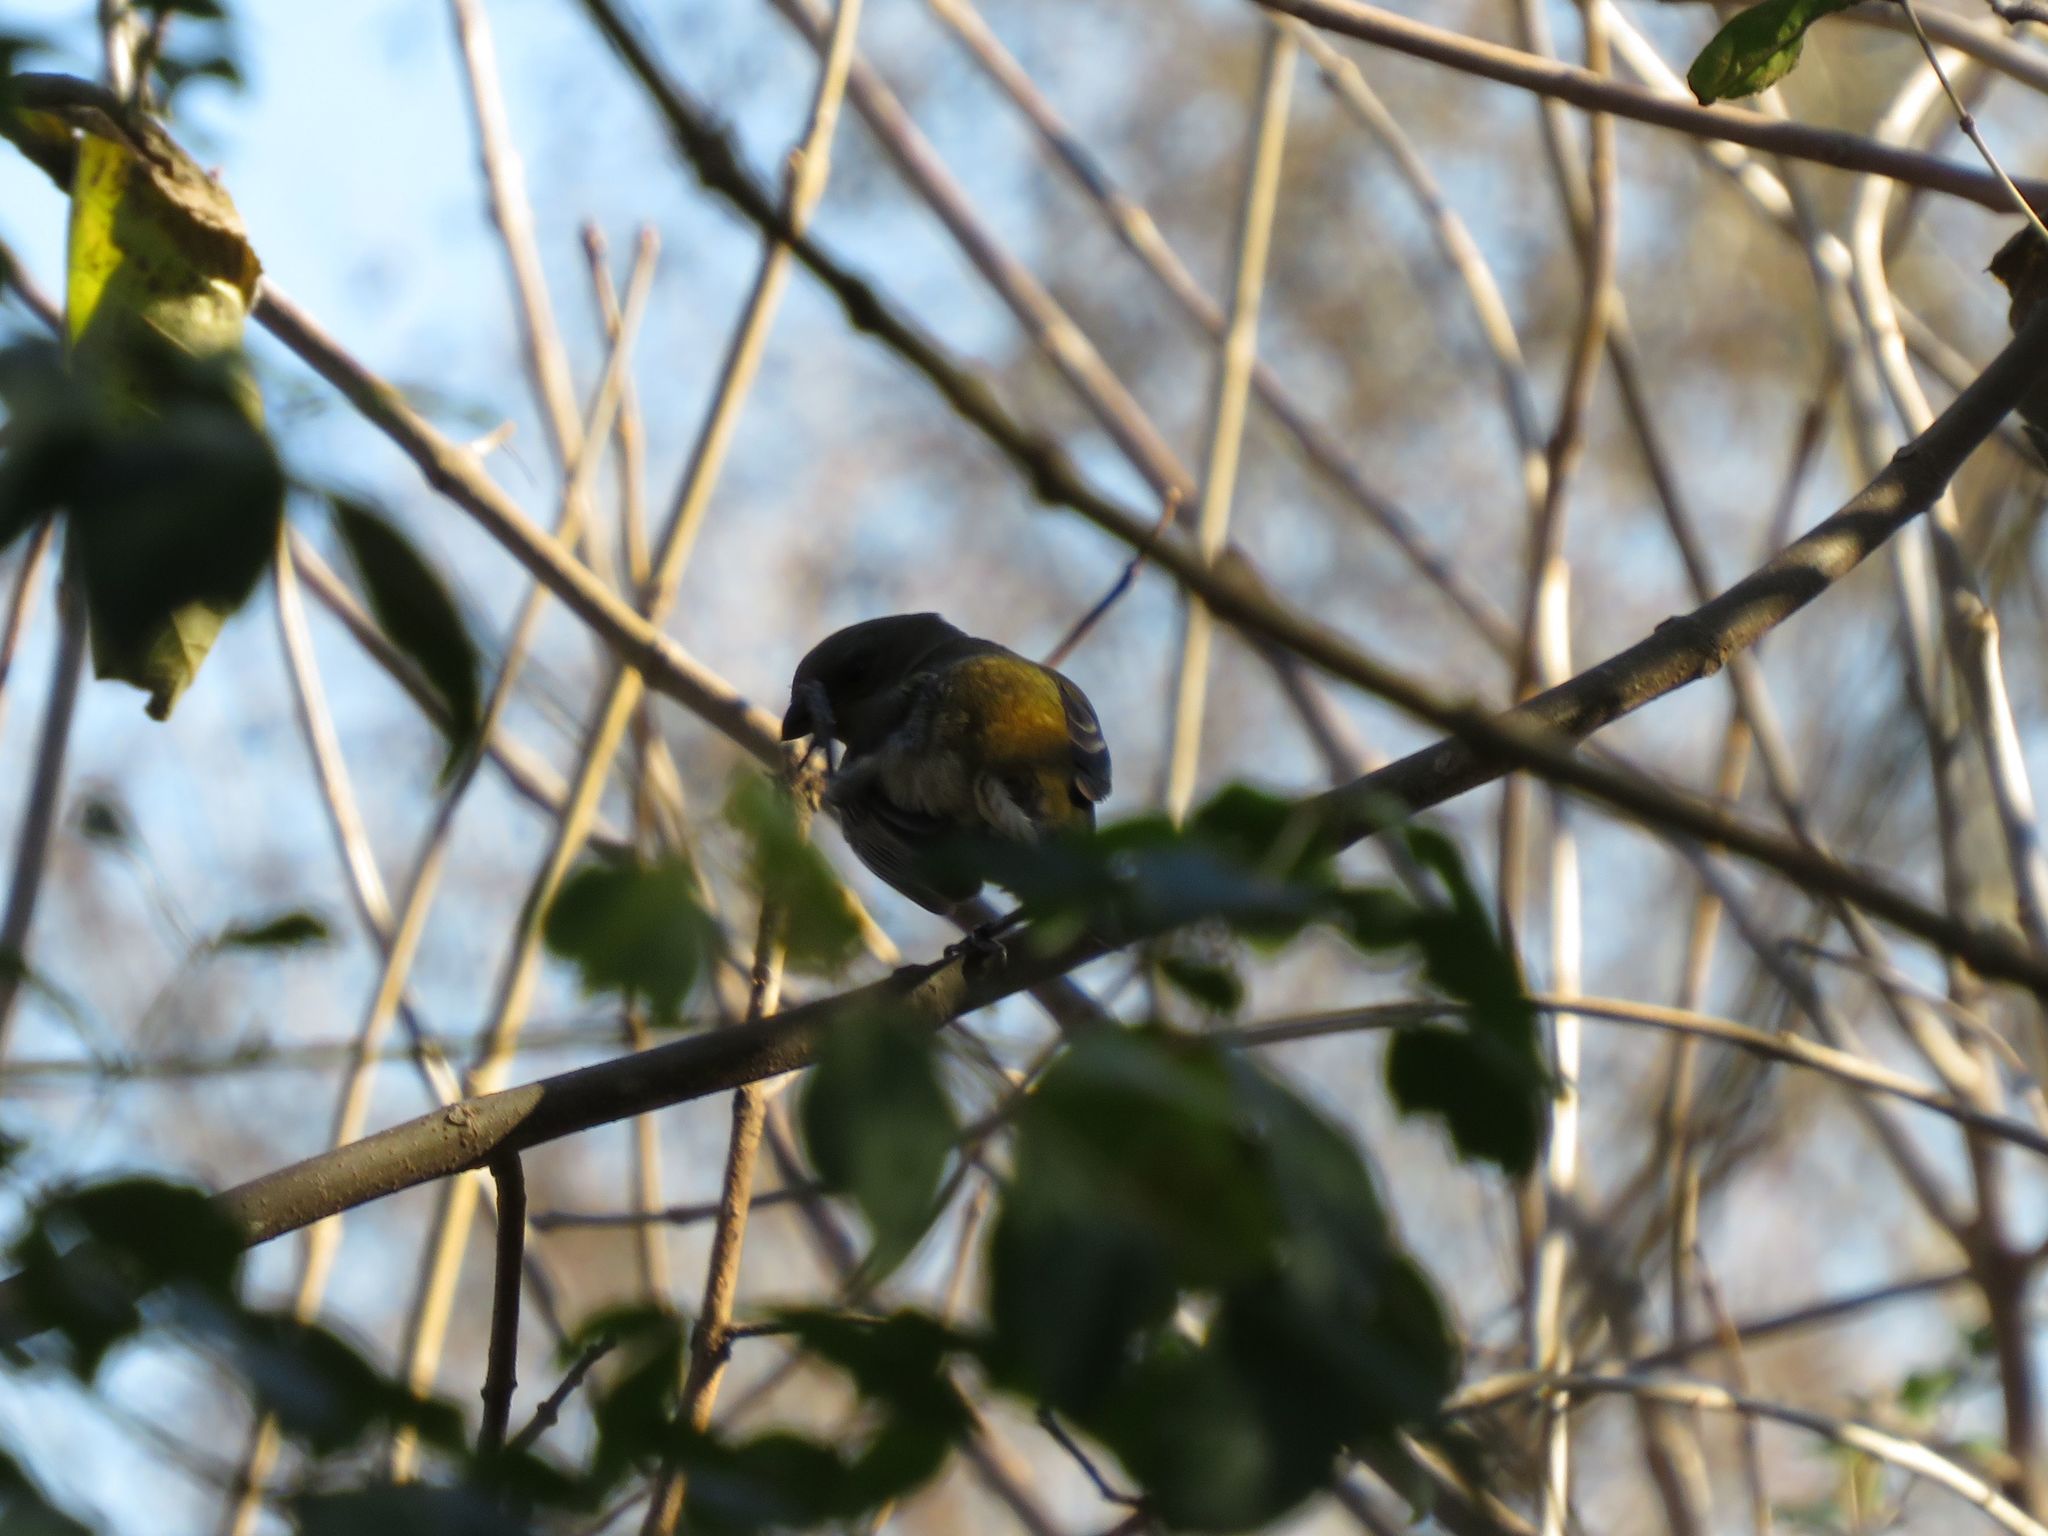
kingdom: Animalia
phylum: Chordata
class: Aves
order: Passeriformes
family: Thraupidae
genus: Rauenia
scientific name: Rauenia bonariensis
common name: Blue-and-yellow tanager
